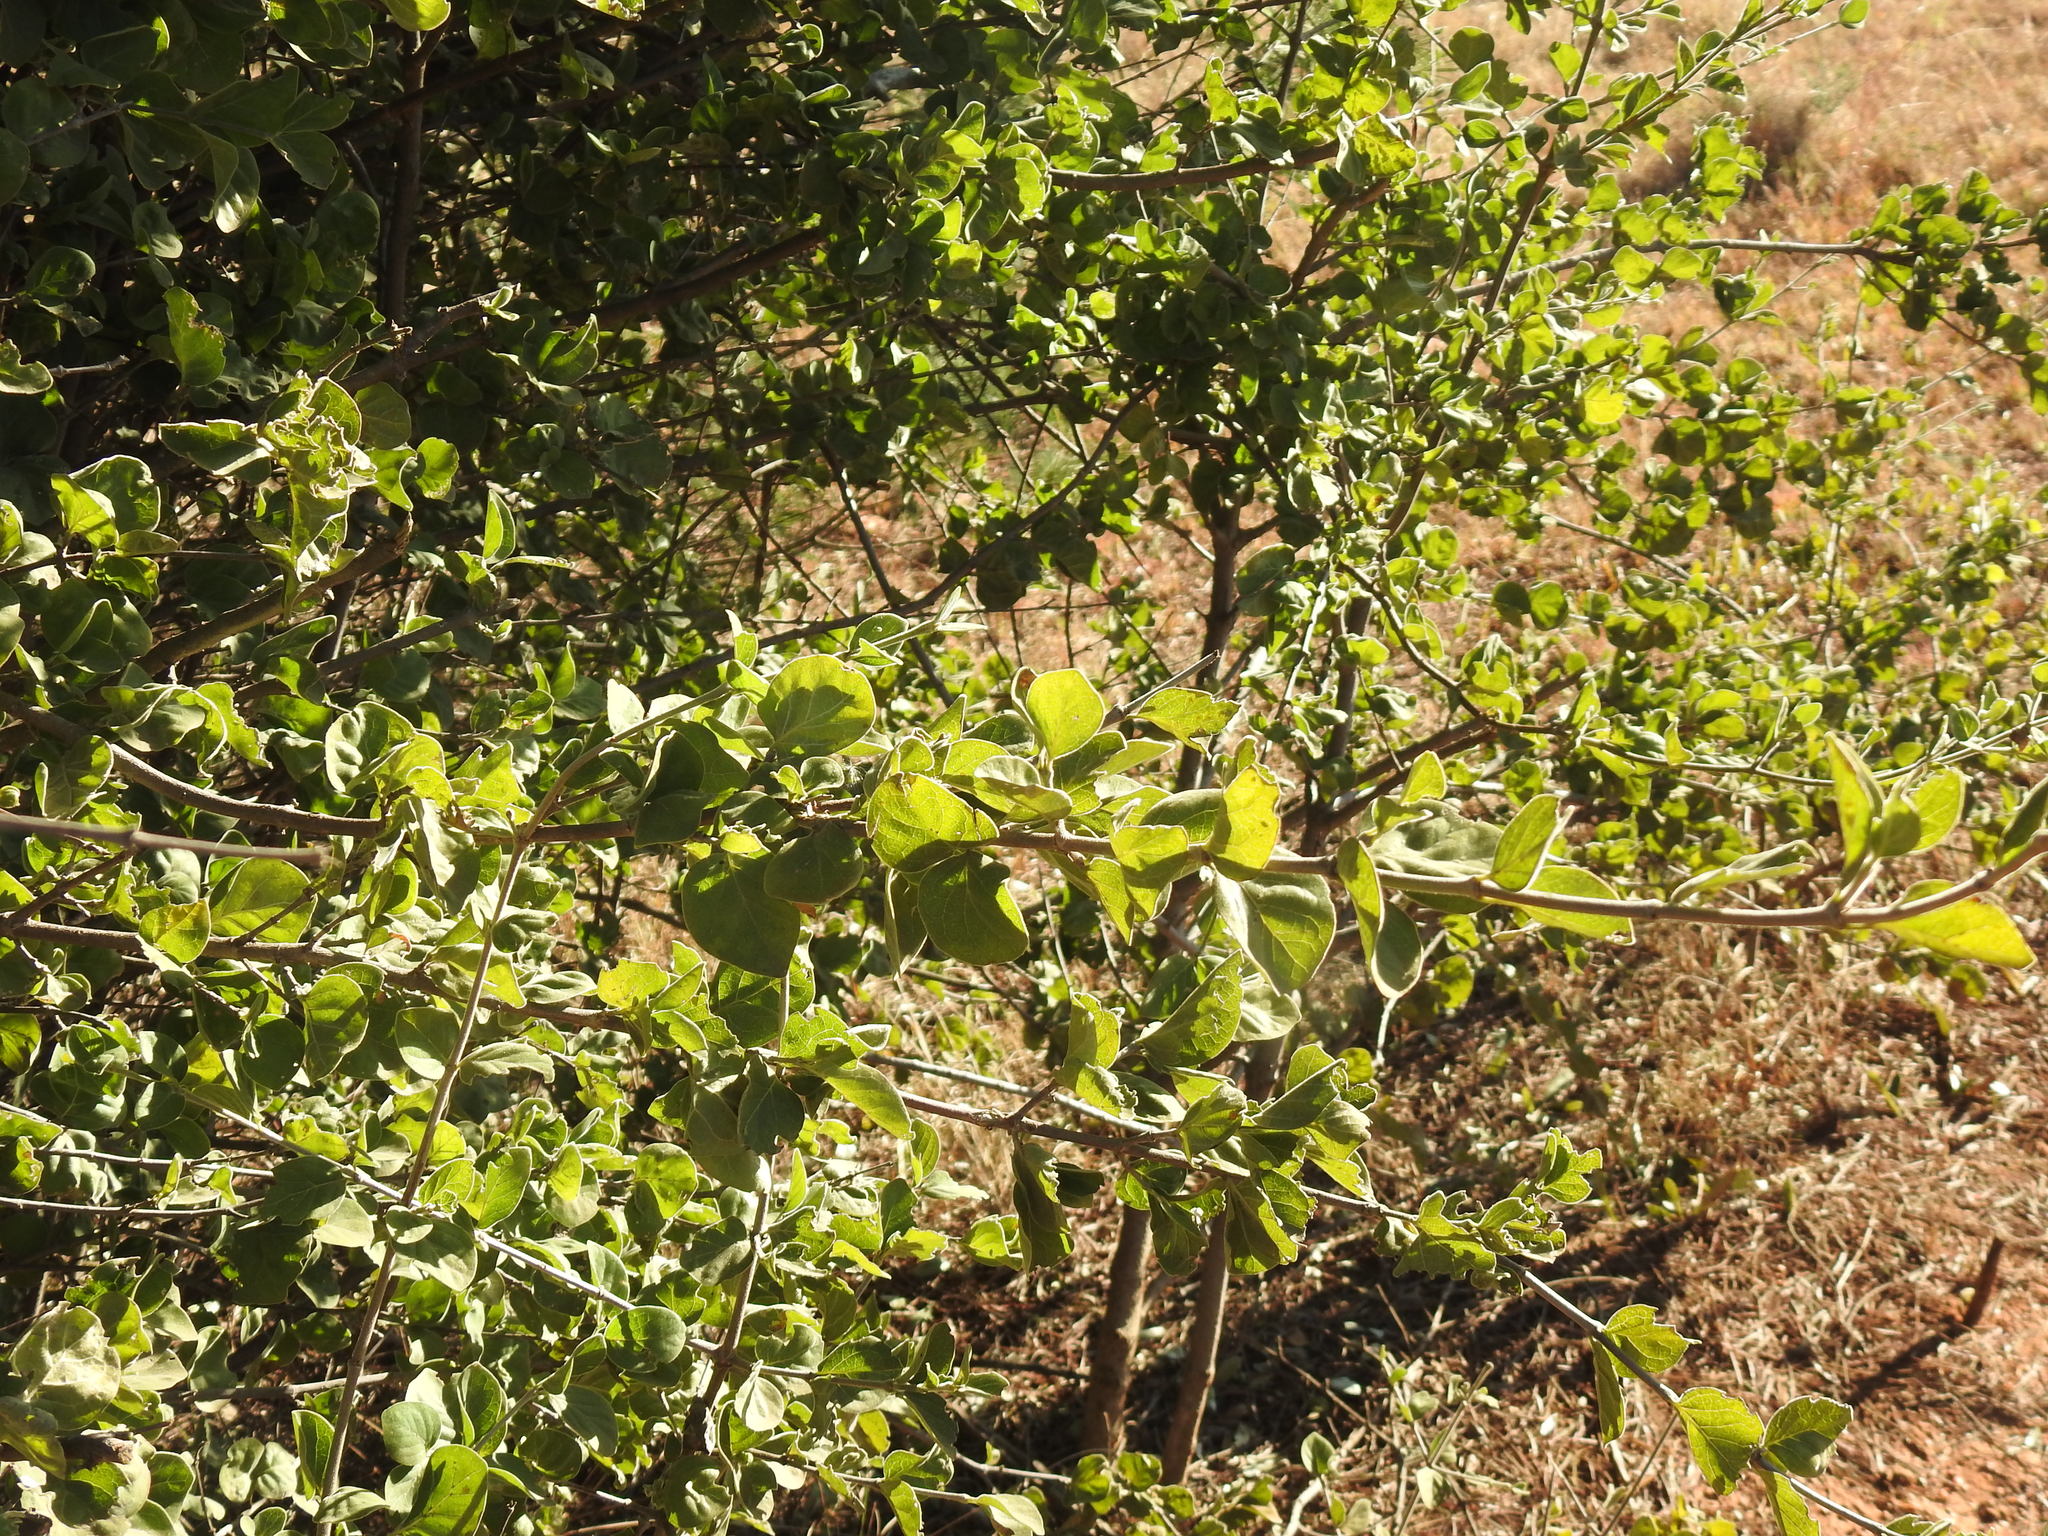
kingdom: Plantae
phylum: Tracheophyta
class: Magnoliopsida
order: Gentianales
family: Rubiaceae
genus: Afrocanthium
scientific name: Afrocanthium gilfillanii
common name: Velvet rock-alder
